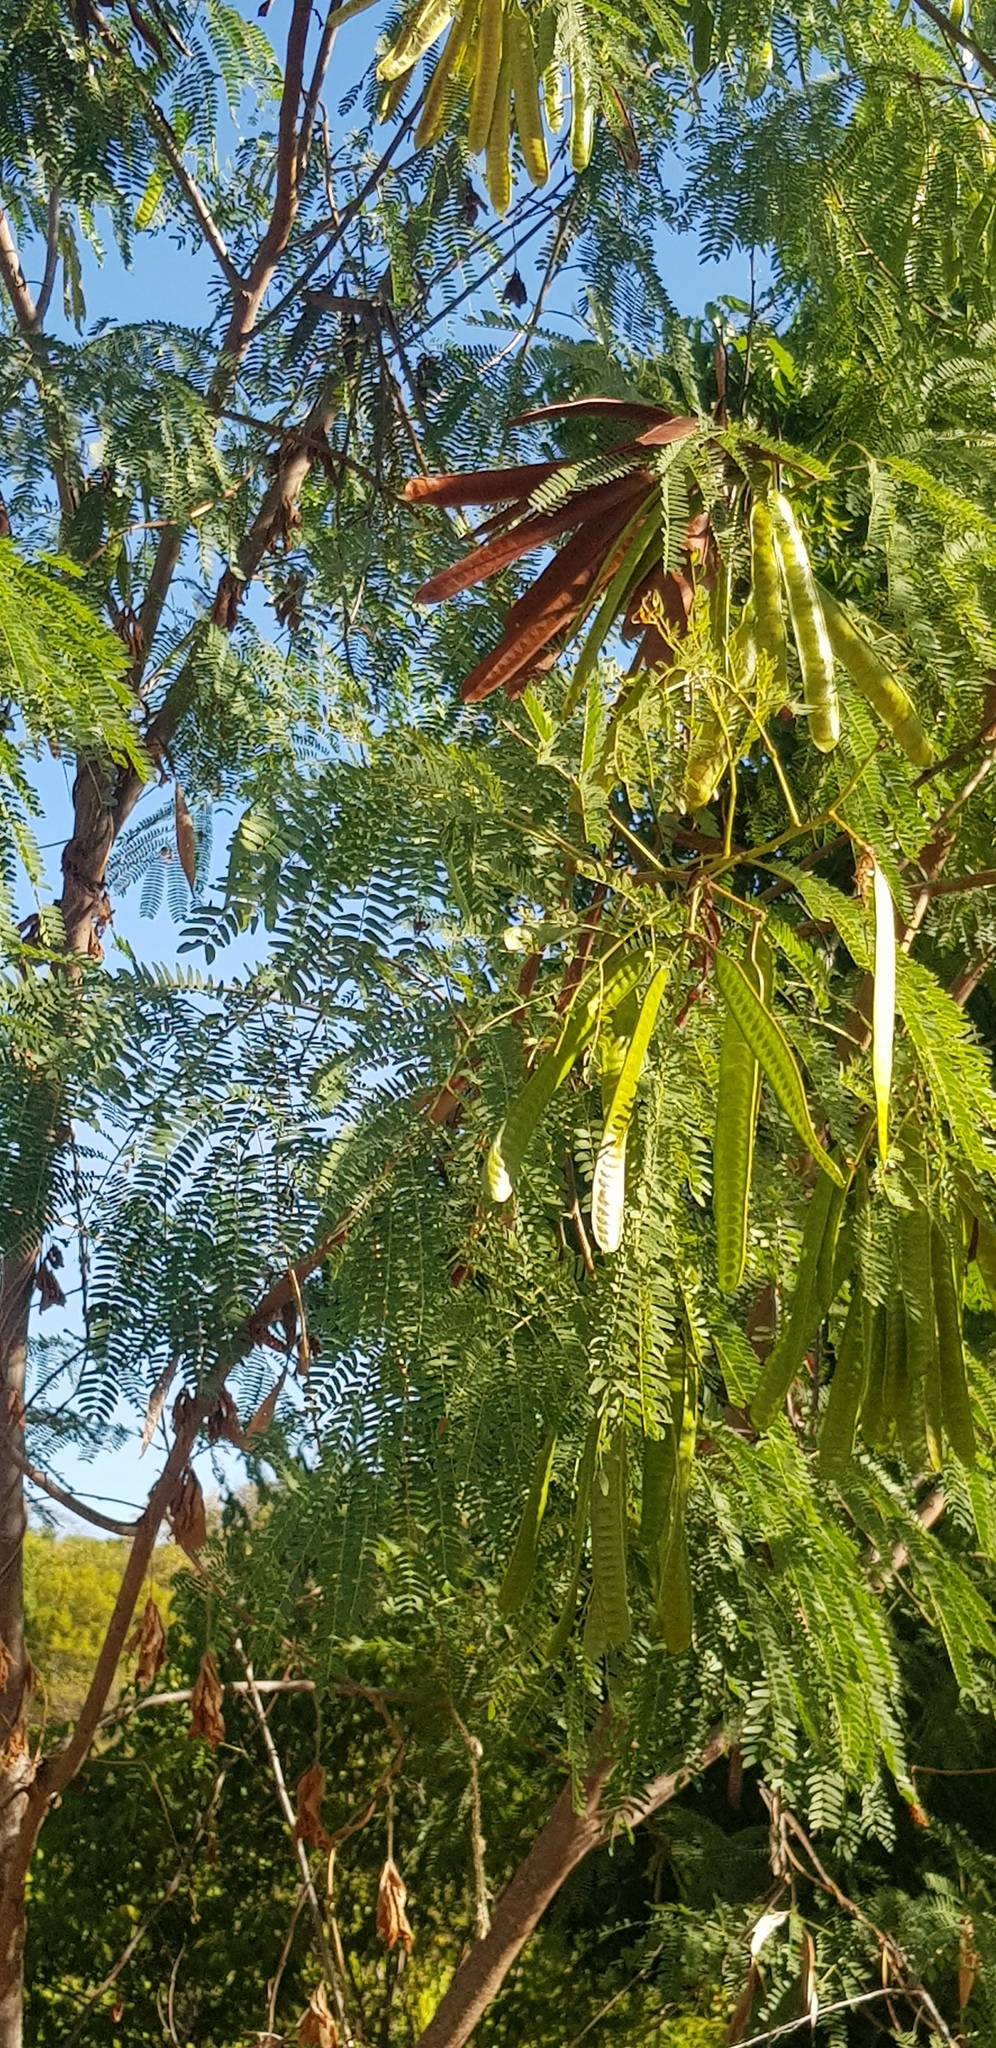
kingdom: Plantae
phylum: Tracheophyta
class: Magnoliopsida
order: Fabales
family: Fabaceae
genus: Leucaena
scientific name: Leucaena leucocephala
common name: White leadtree
